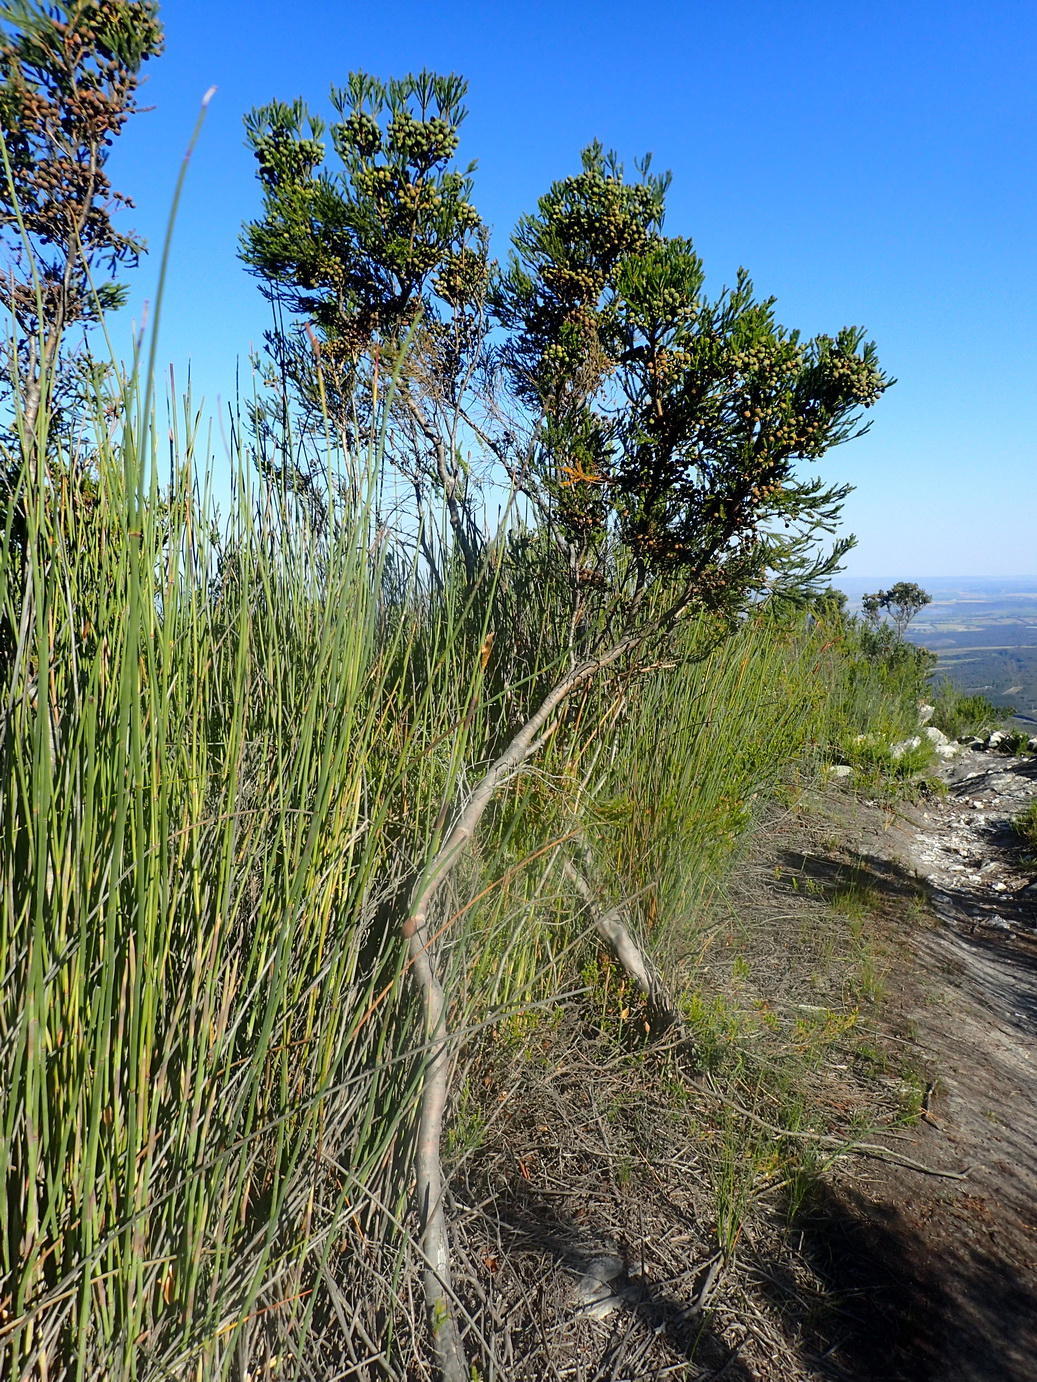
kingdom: Plantae
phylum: Tracheophyta
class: Magnoliopsida
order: Bruniales
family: Bruniaceae
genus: Berzelia
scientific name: Berzelia intermedia
